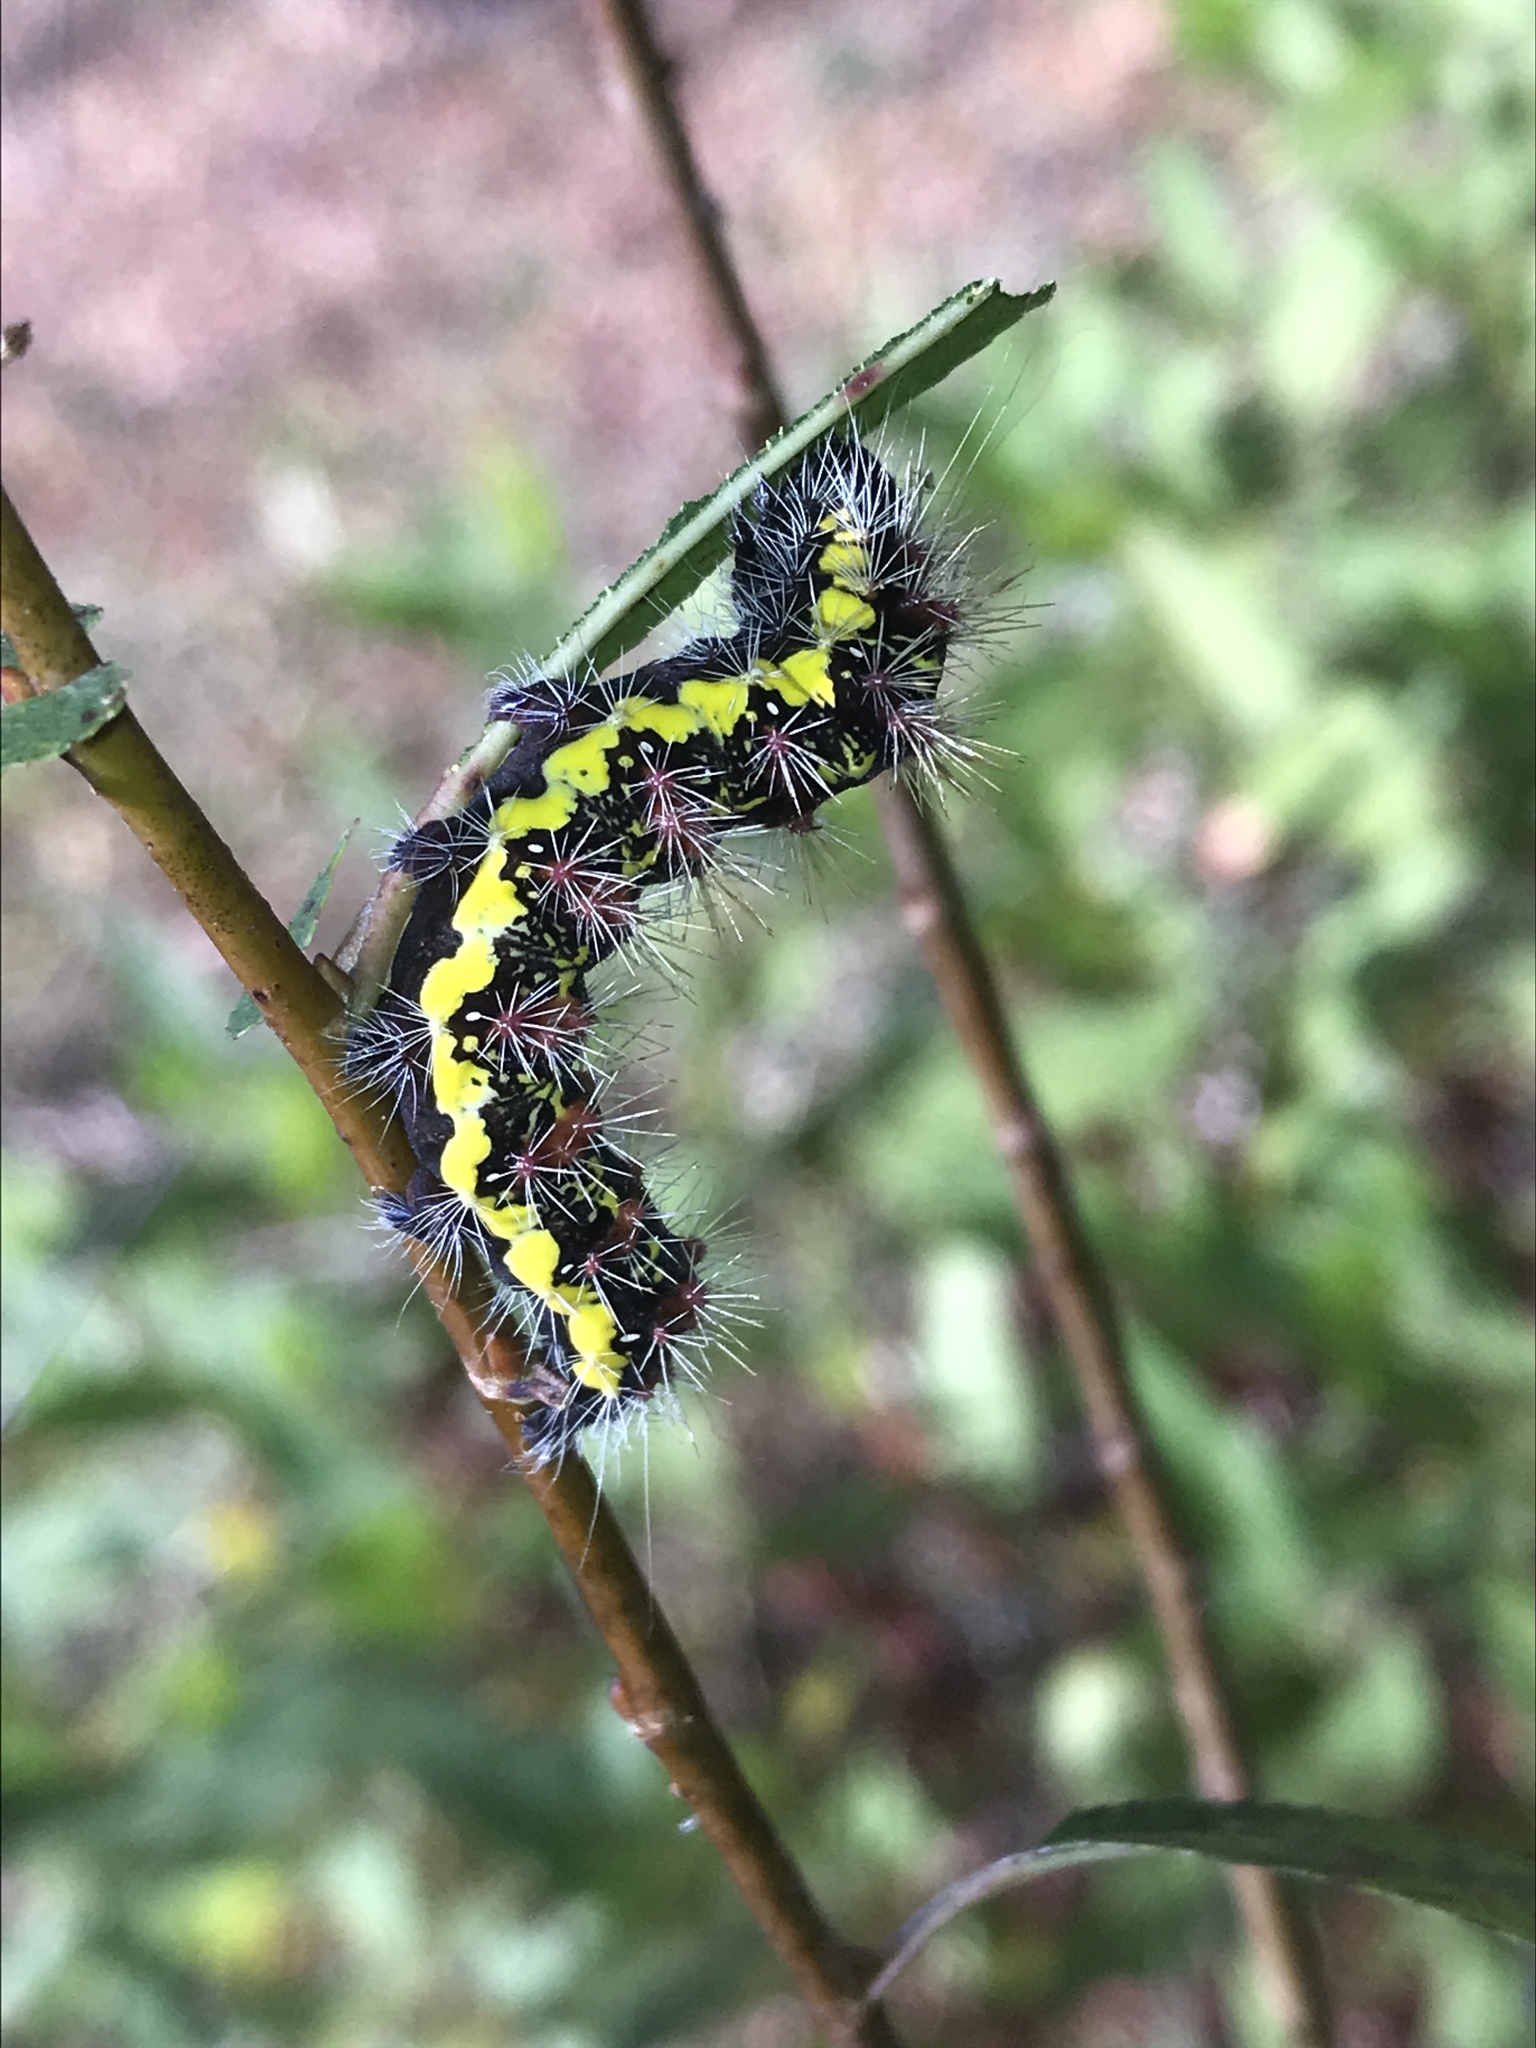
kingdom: Animalia
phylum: Arthropoda
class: Insecta
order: Lepidoptera
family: Noctuidae
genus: Acronicta
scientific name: Acronicta oblinita
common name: Smeared dagger
